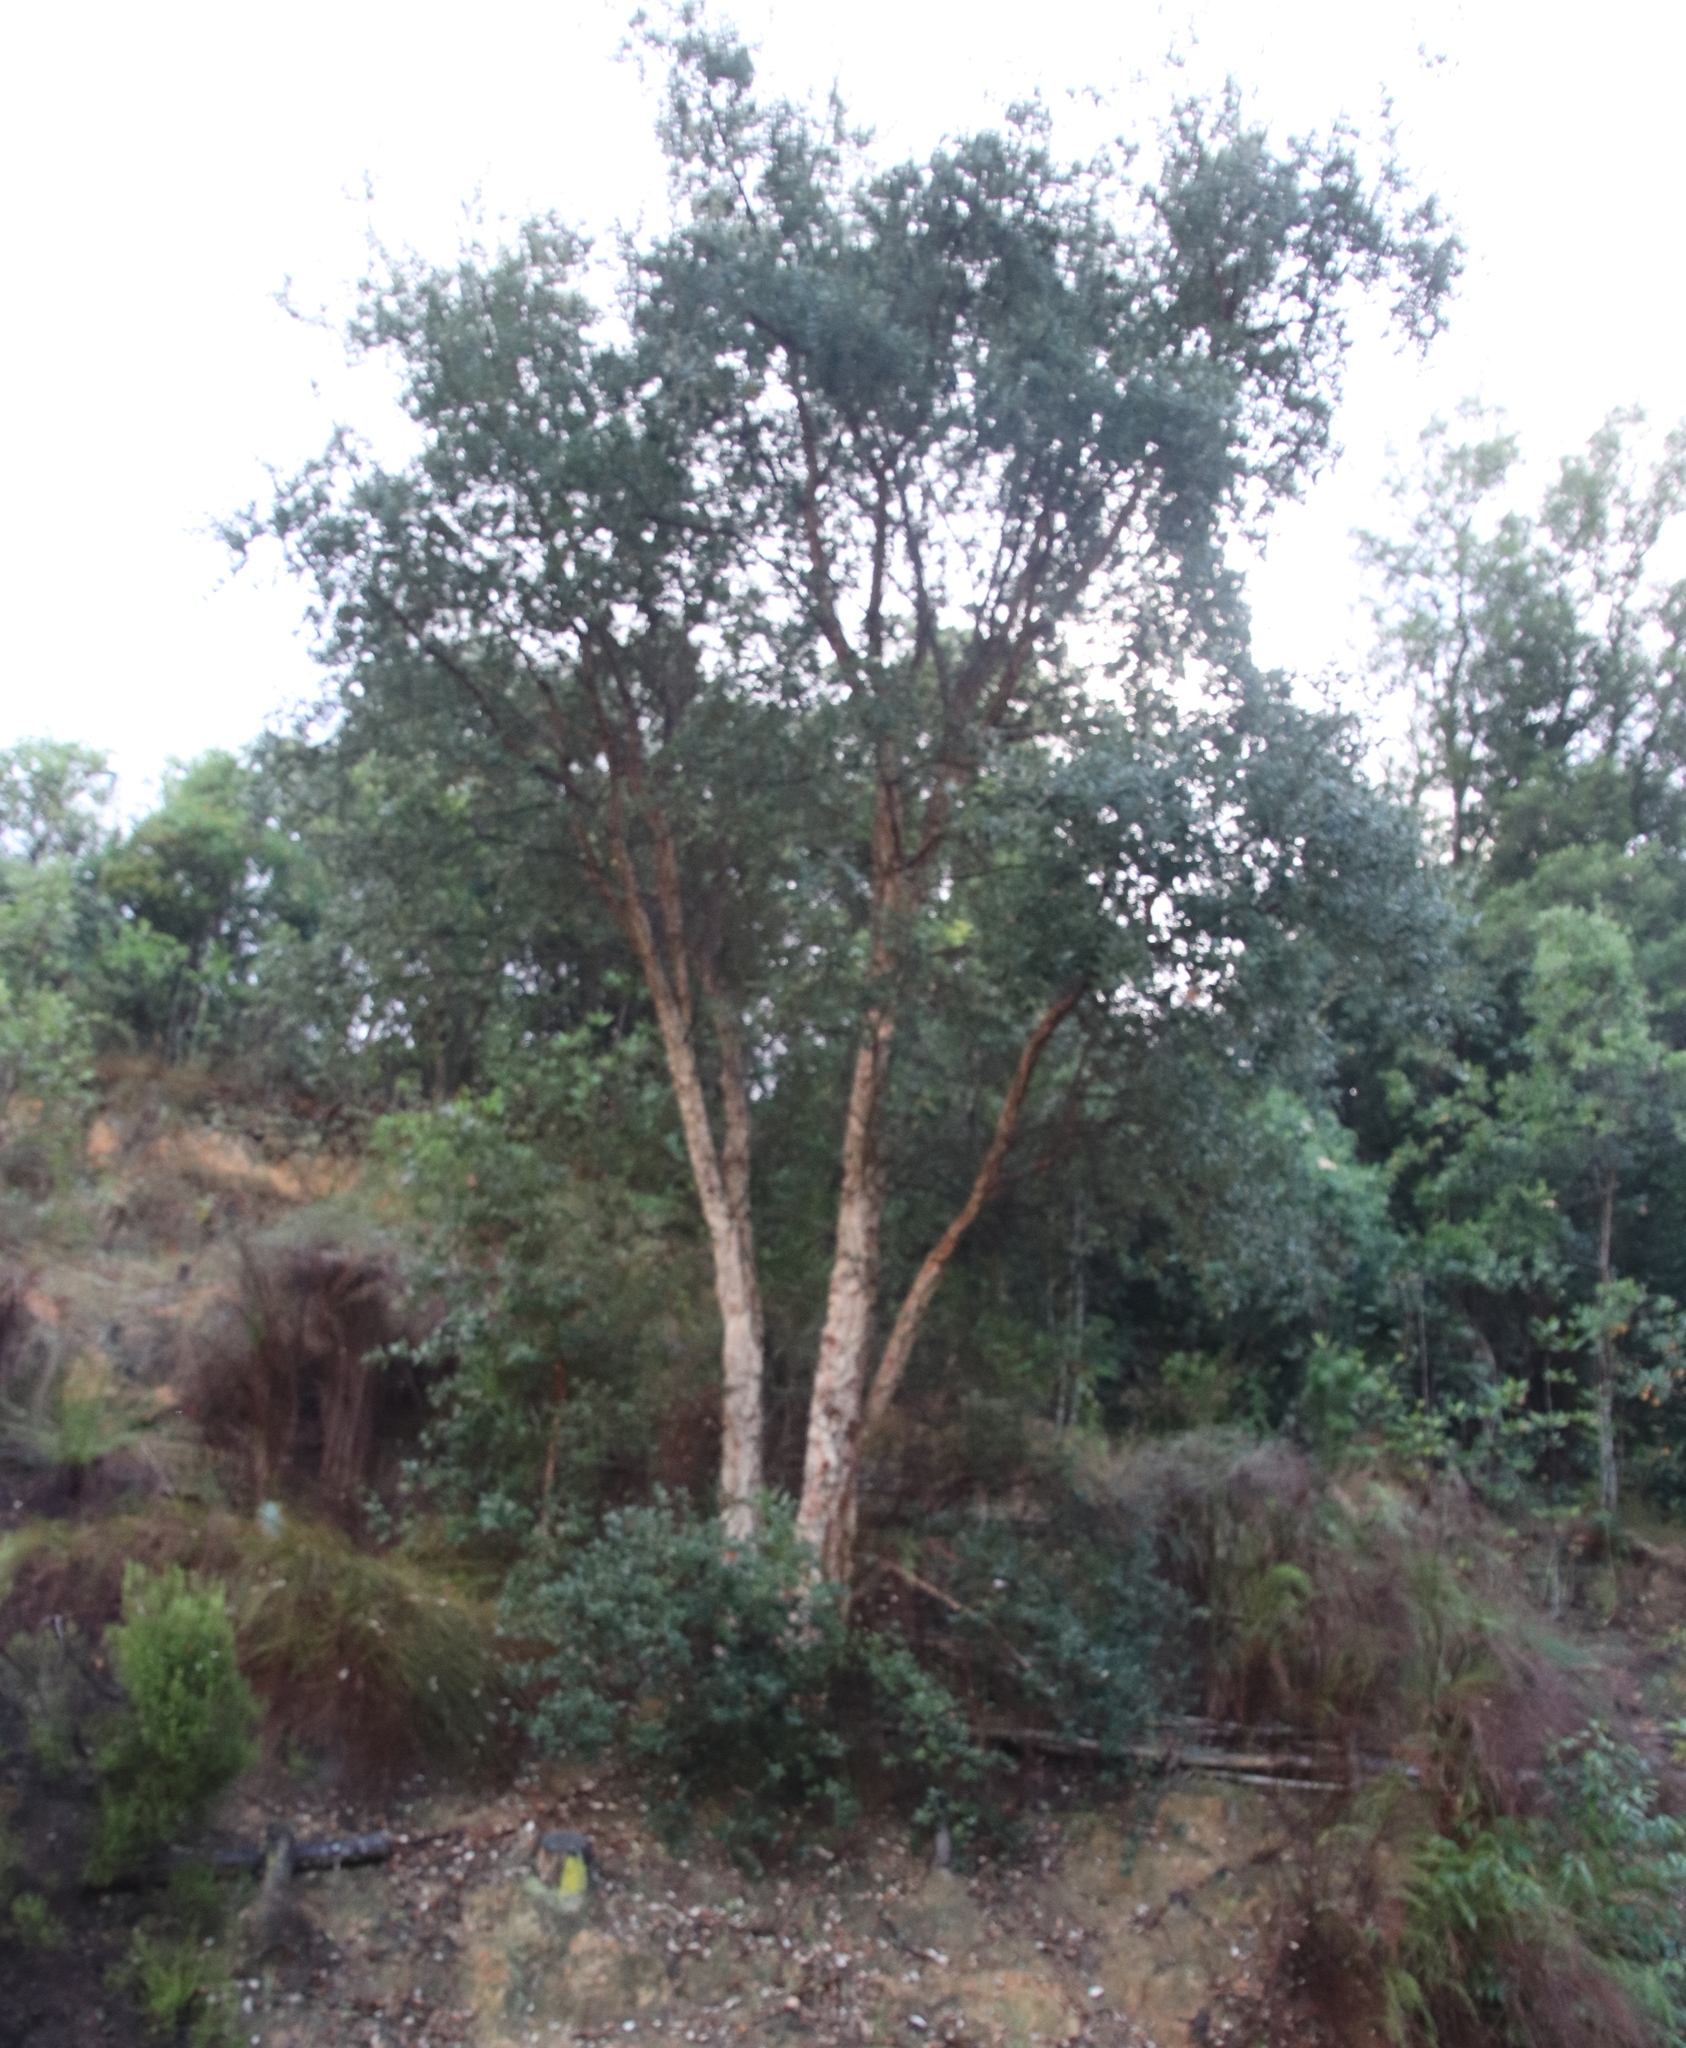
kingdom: Plantae
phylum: Tracheophyta
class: Magnoliopsida
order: Fagales
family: Fagaceae
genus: Quercus
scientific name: Quercus suber
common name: Cork oak
